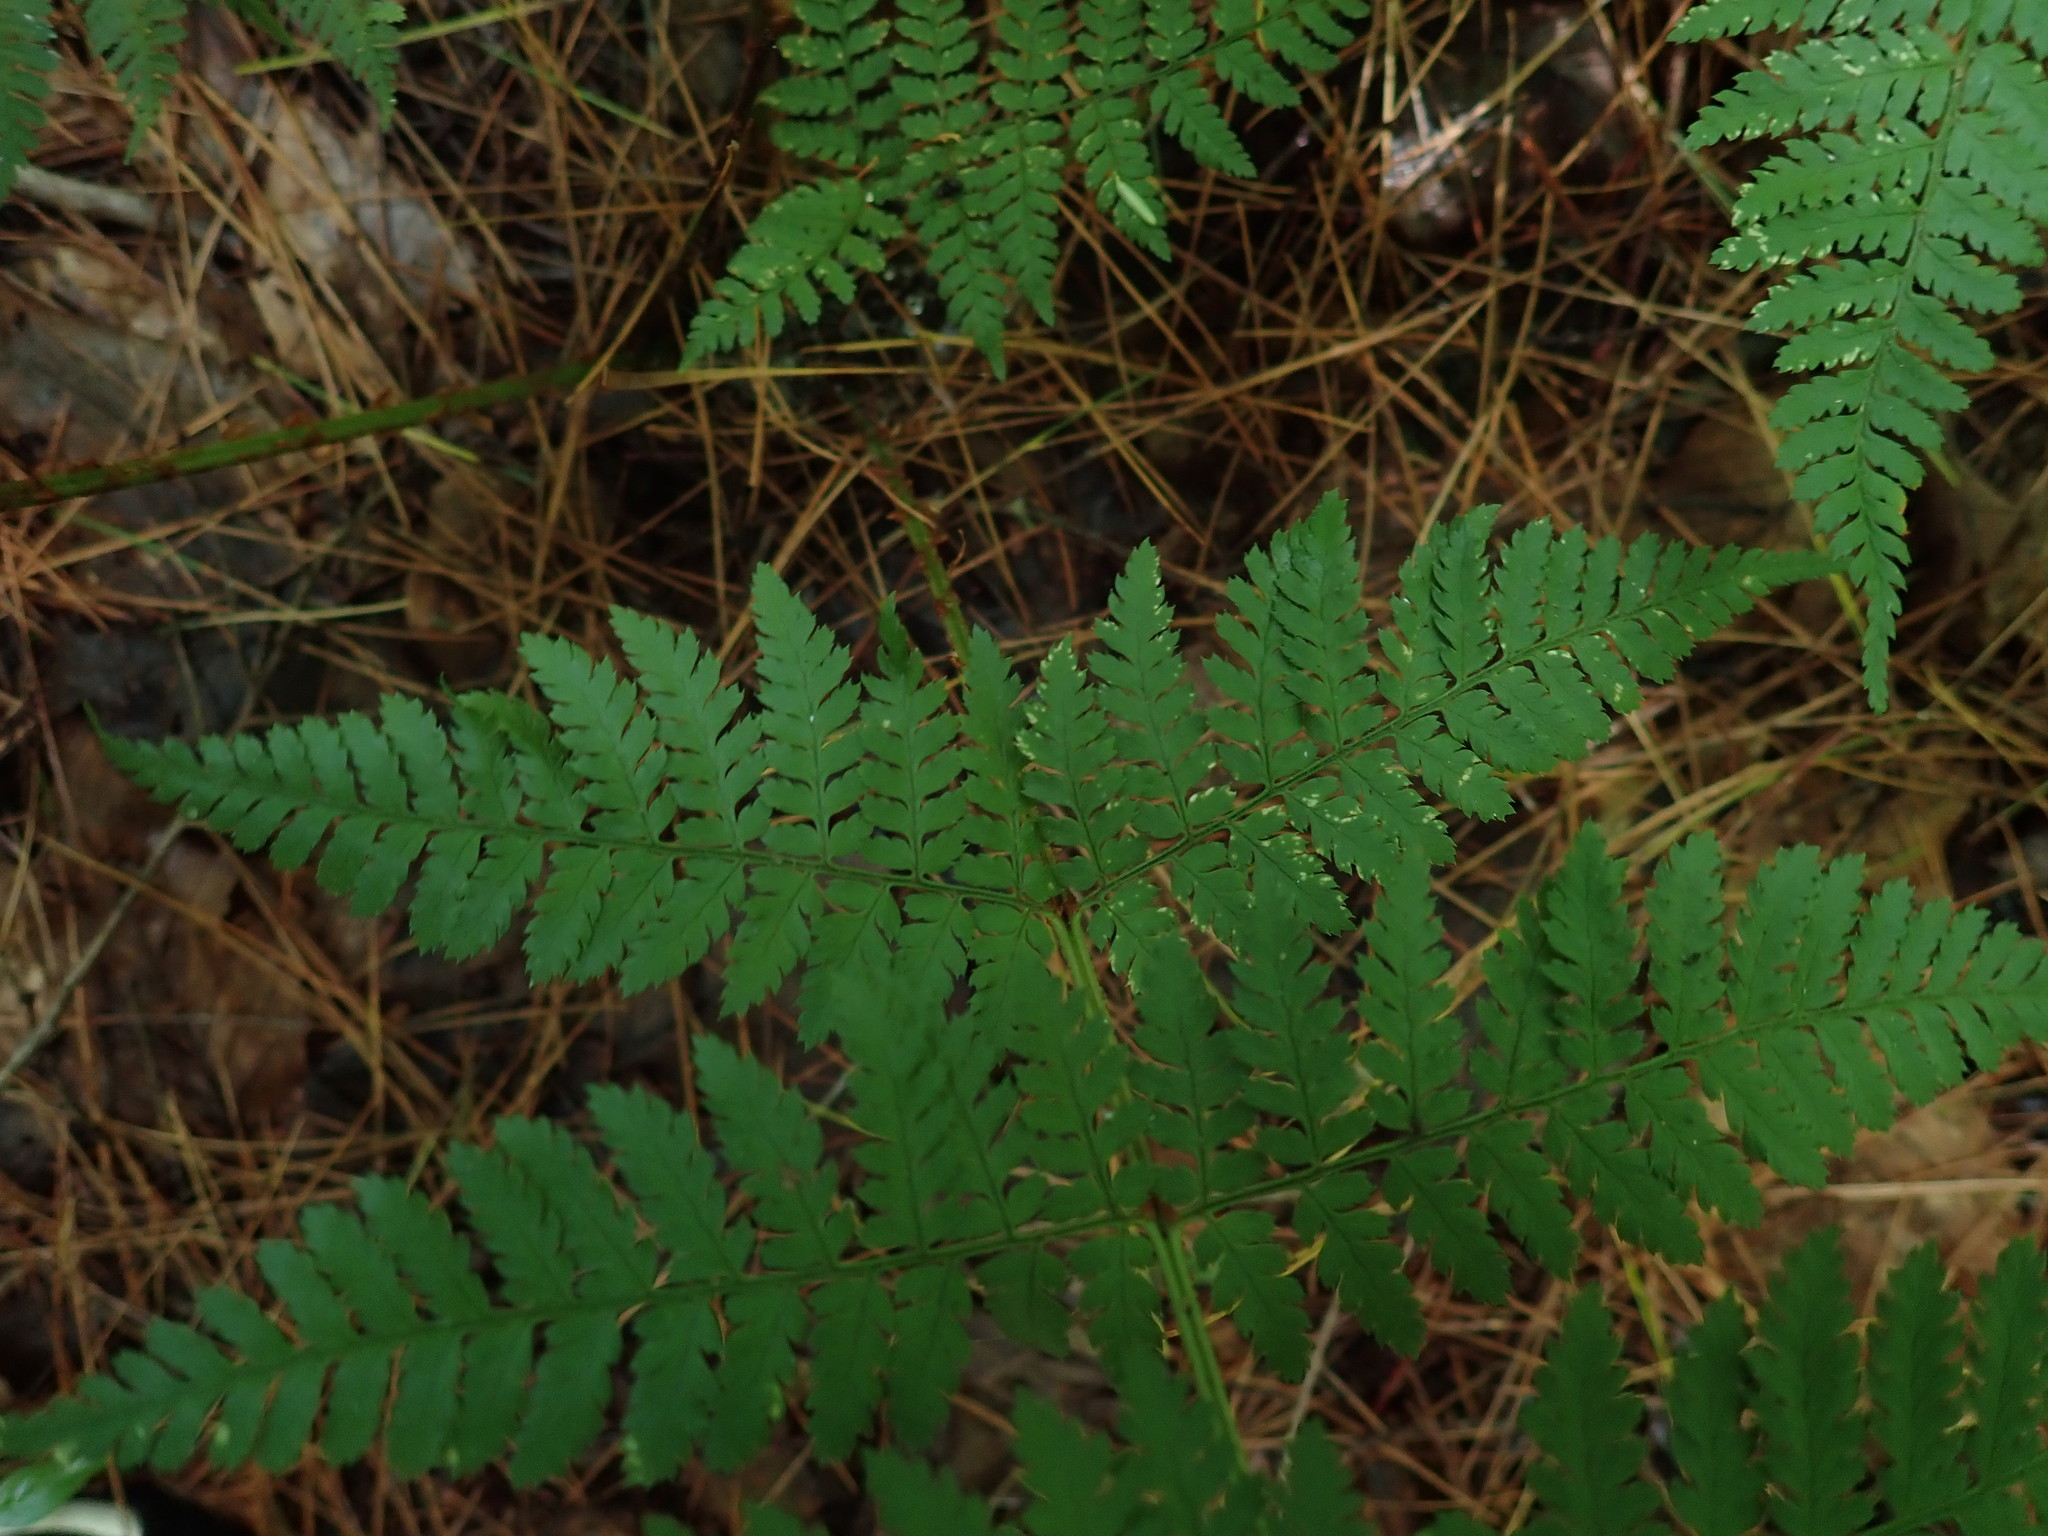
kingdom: Plantae
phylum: Tracheophyta
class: Polypodiopsida
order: Polypodiales
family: Dryopteridaceae
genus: Dryopteris
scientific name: Dryopteris intermedia
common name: Evergreen wood fern
